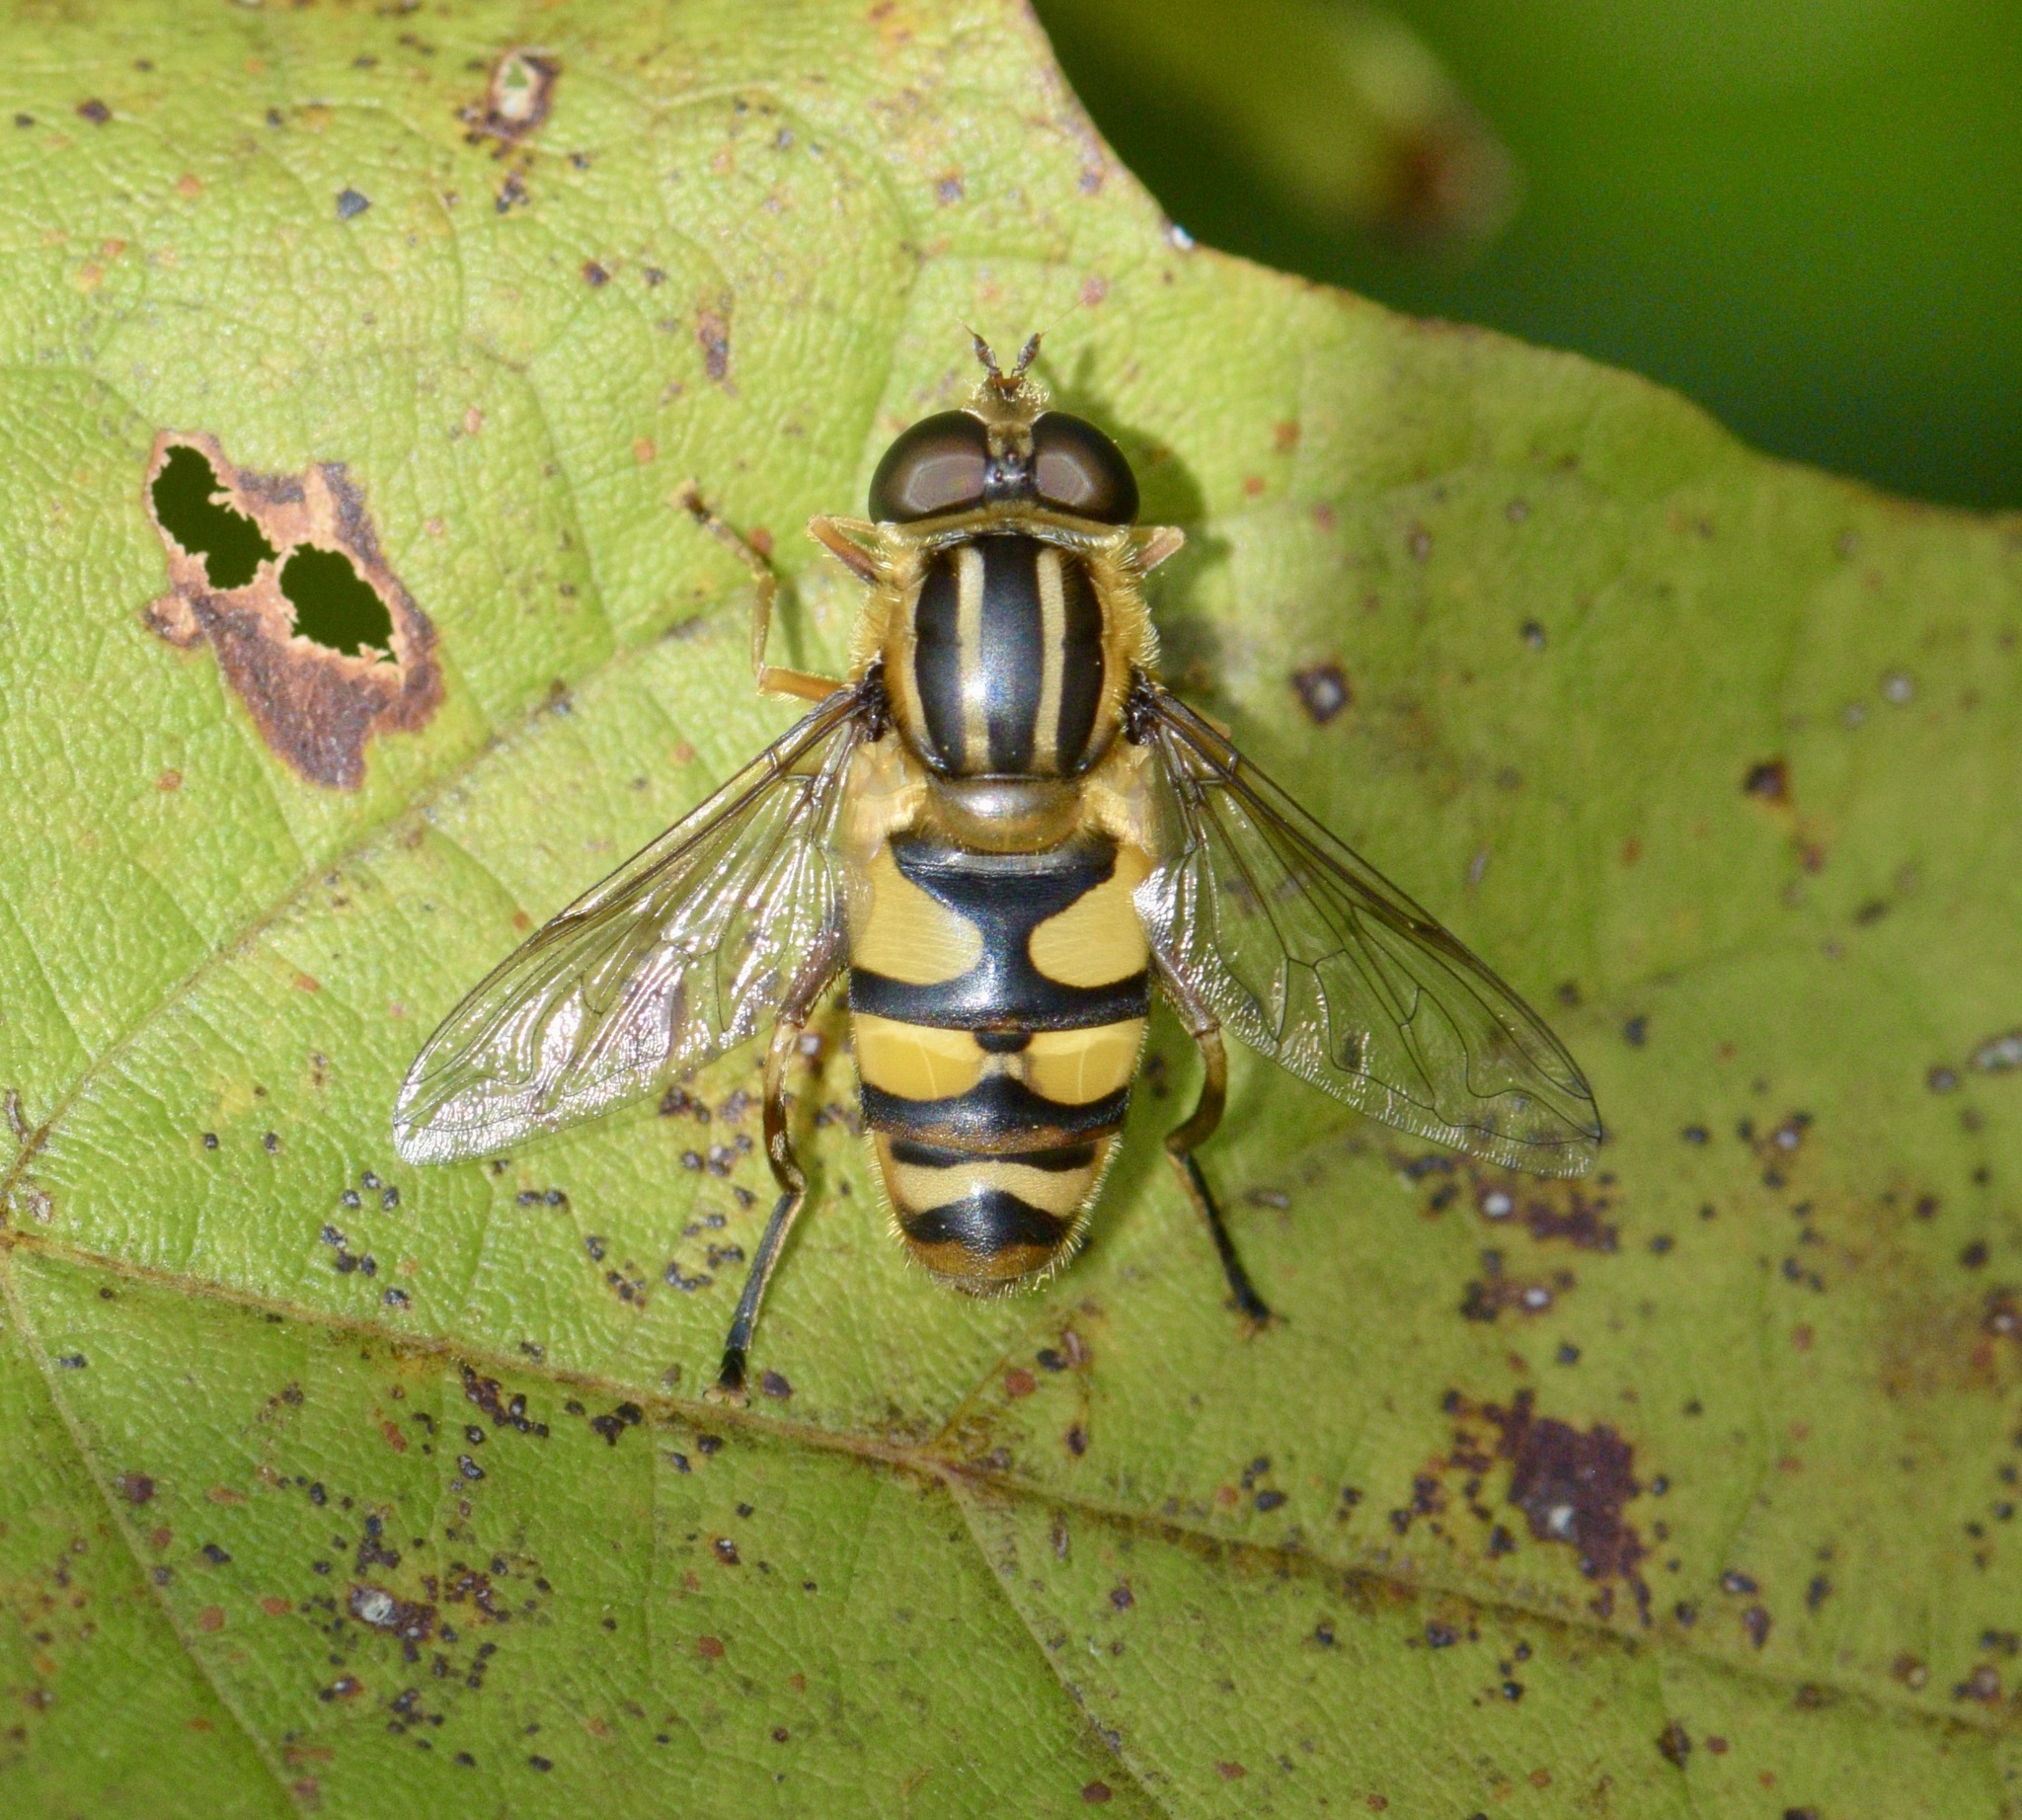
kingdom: Animalia
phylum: Arthropoda
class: Insecta
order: Diptera
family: Syrphidae
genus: Helophilus
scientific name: Helophilus fasciatus
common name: Narrow-headed marsh fly
